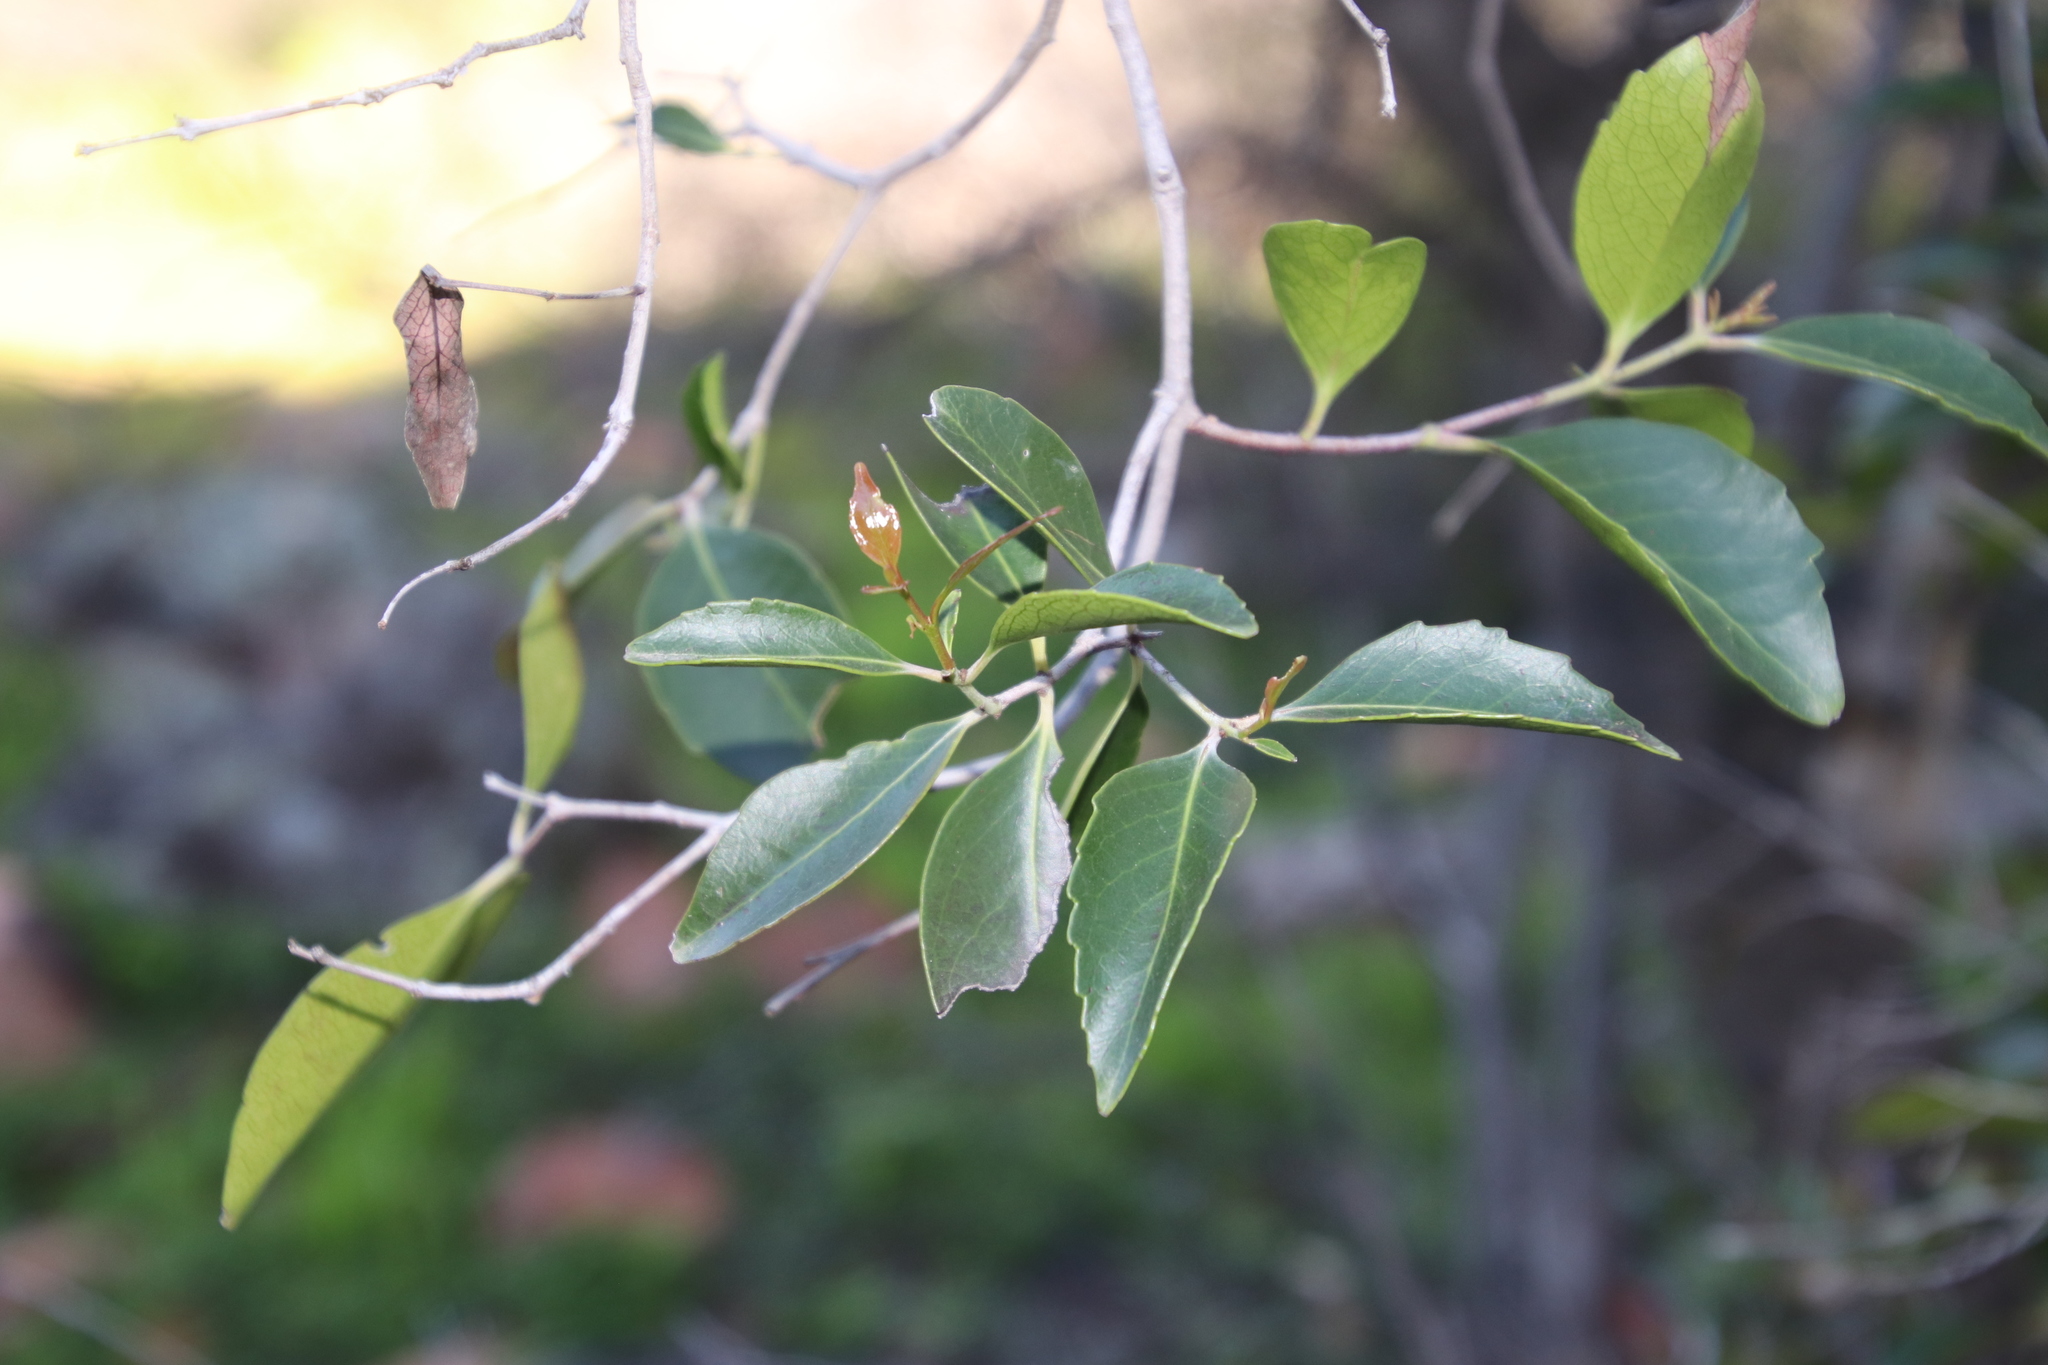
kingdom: Plantae
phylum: Tracheophyta
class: Magnoliopsida
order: Celastrales
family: Celastraceae
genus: Cassine
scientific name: Cassine peragua
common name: Cape saffron
